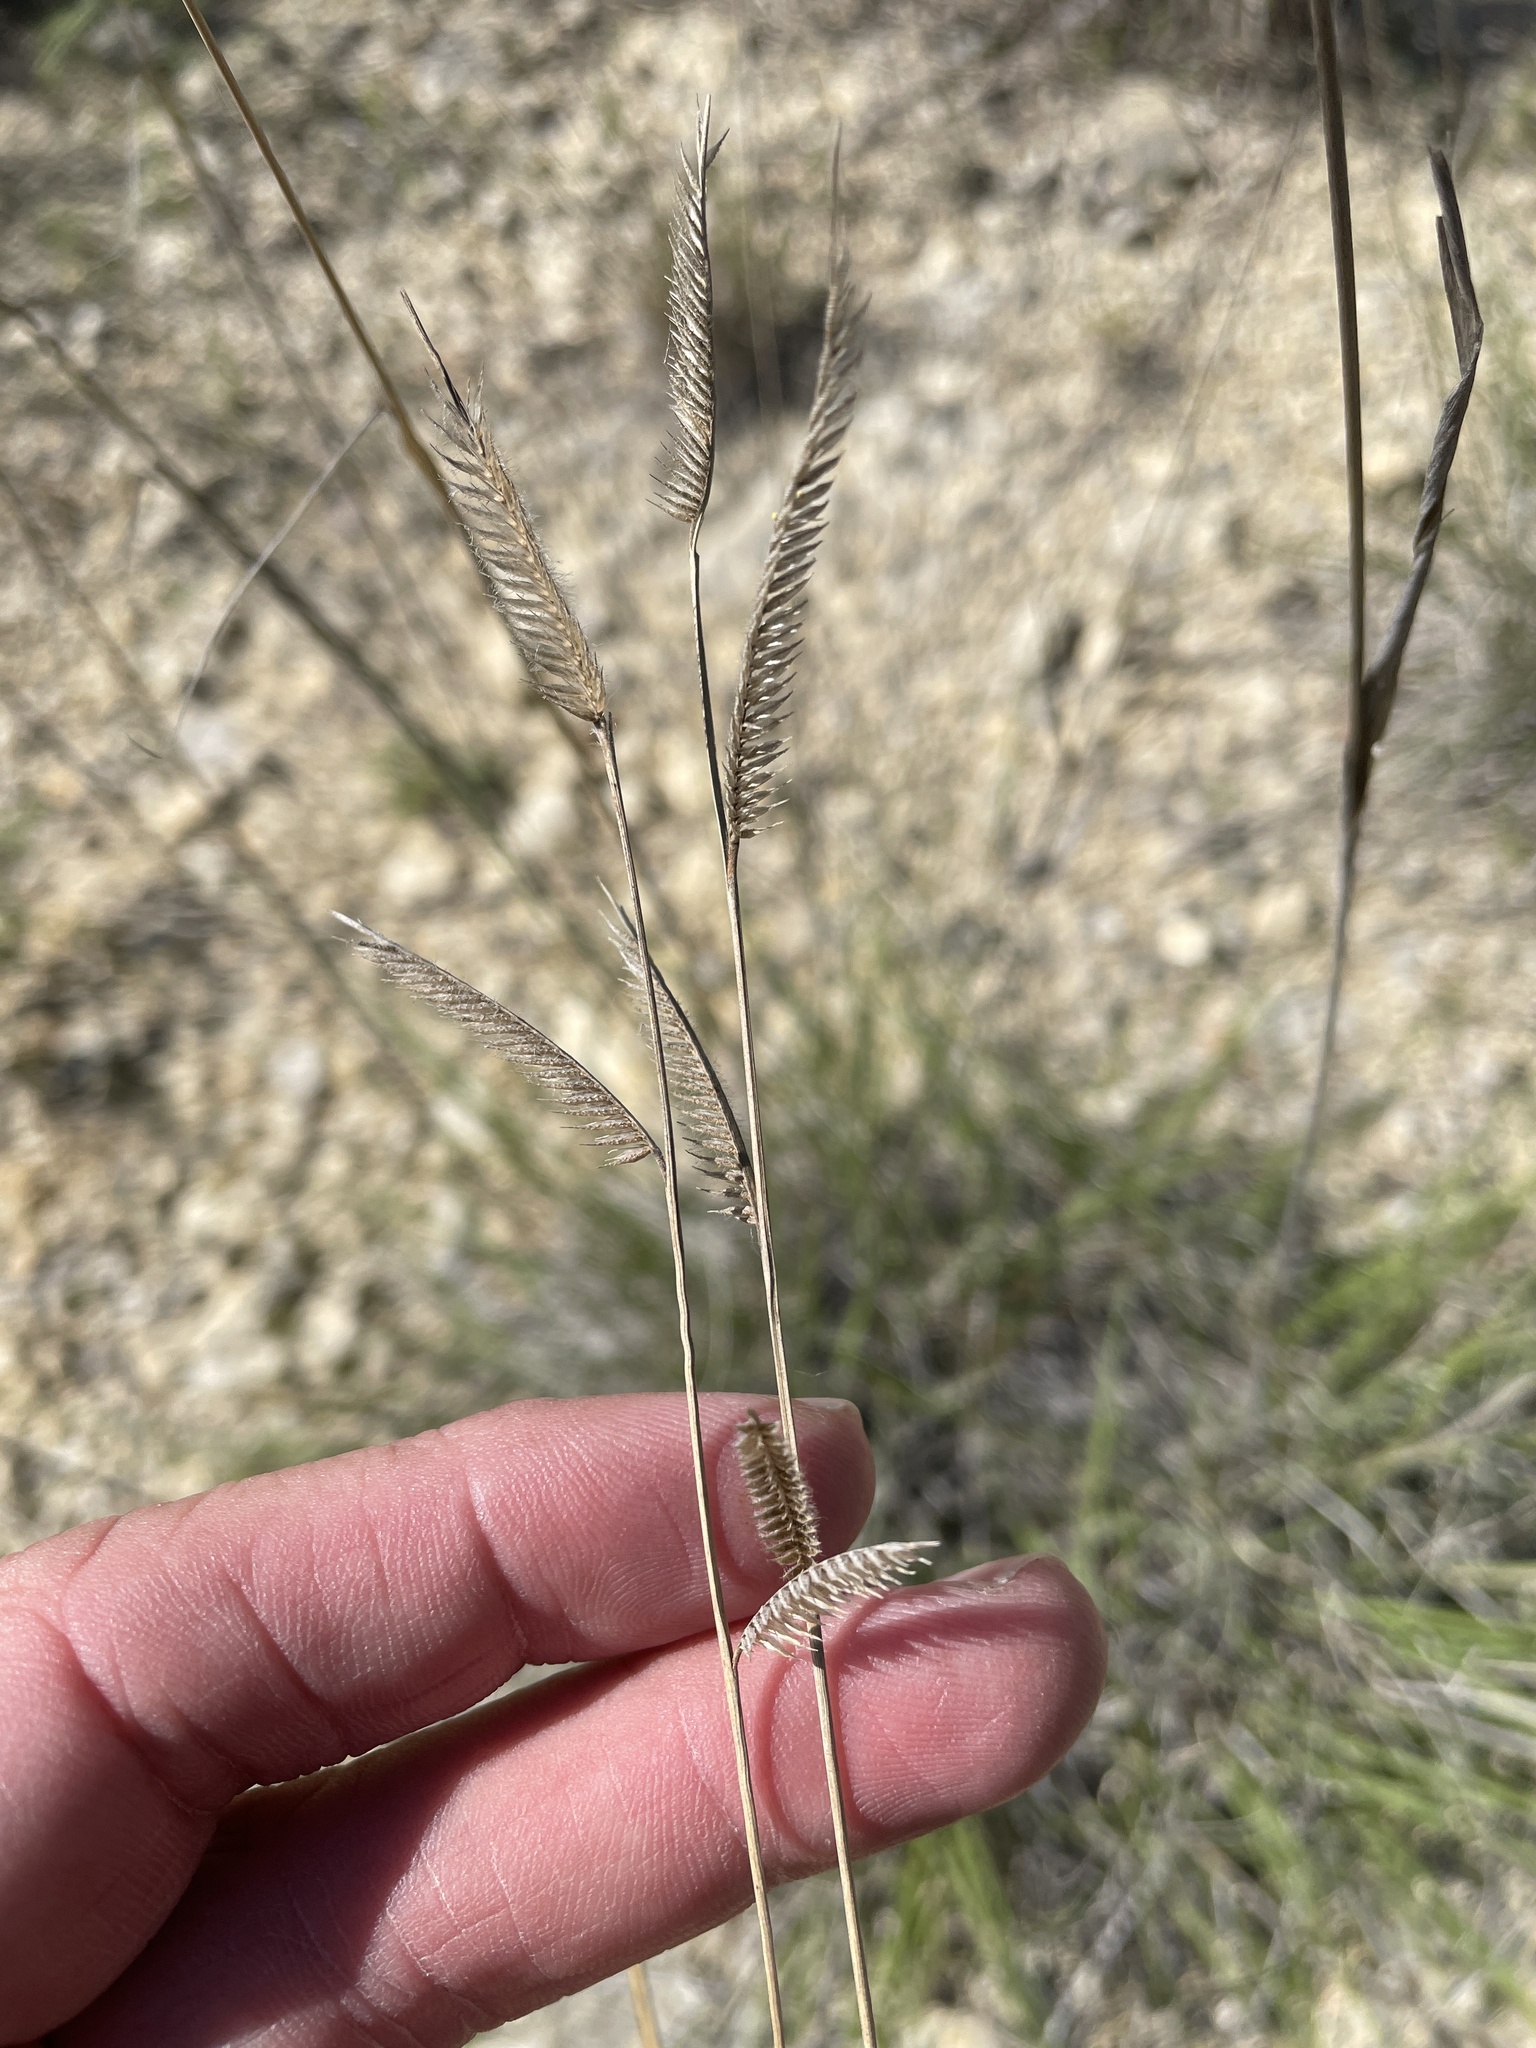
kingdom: Plantae
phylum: Tracheophyta
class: Liliopsida
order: Poales
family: Poaceae
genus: Bouteloua
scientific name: Bouteloua pectinata
